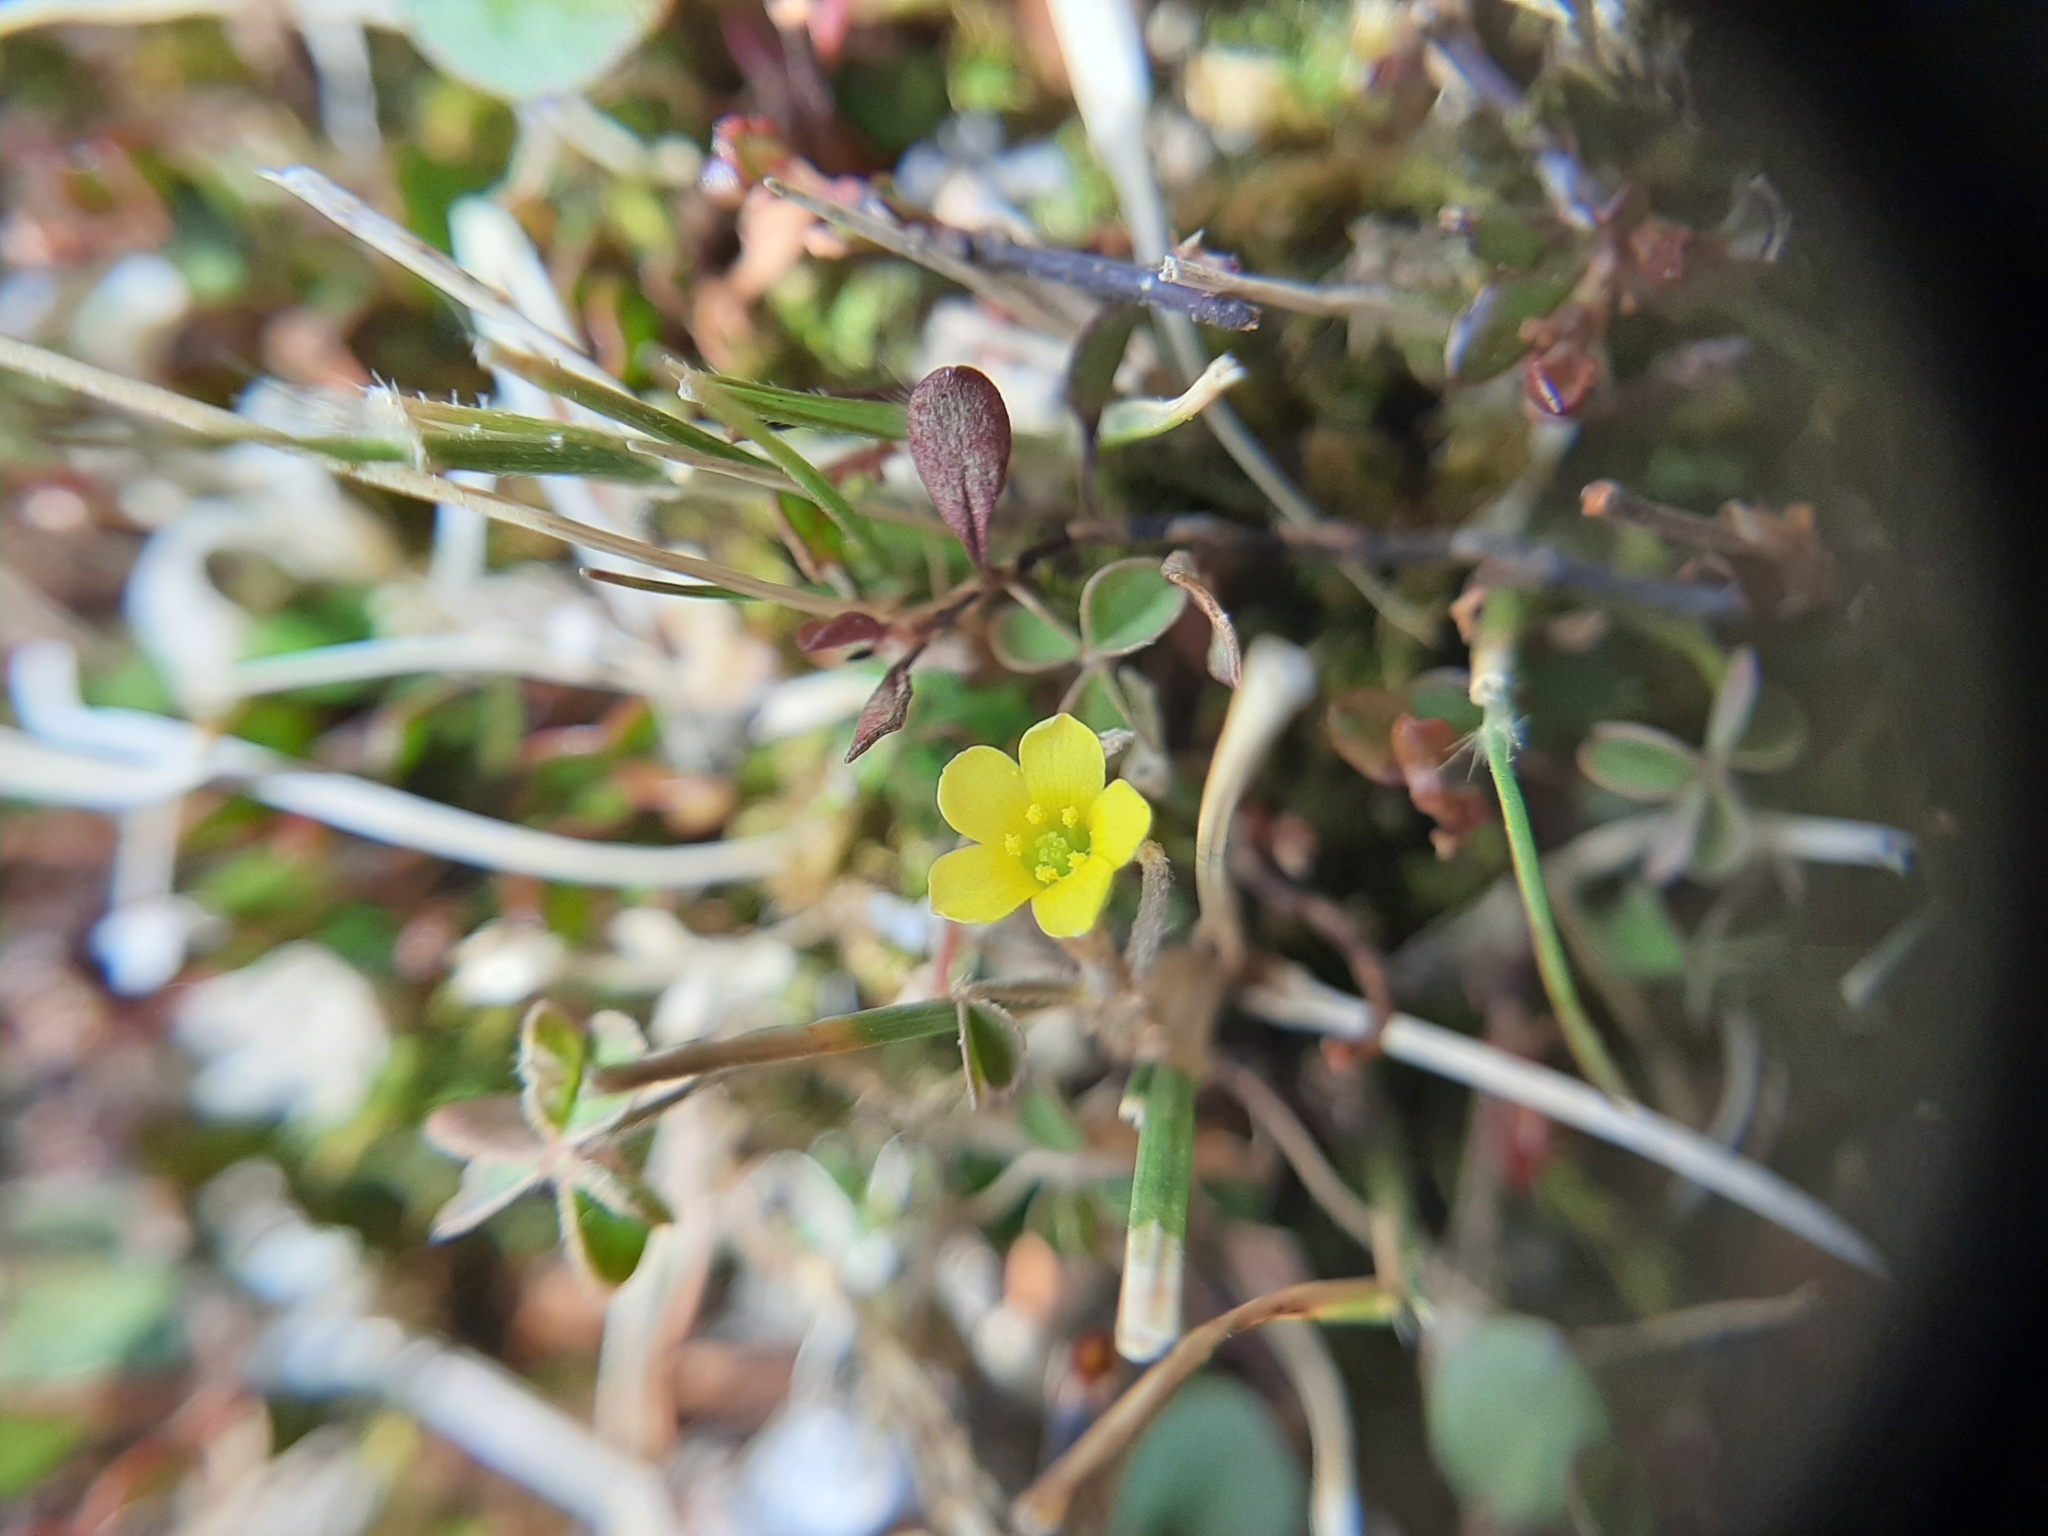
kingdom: Plantae
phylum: Tracheophyta
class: Magnoliopsida
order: Oxalidales
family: Oxalidaceae
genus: Oxalis
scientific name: Oxalis exilis
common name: Least yellow-sorrel
